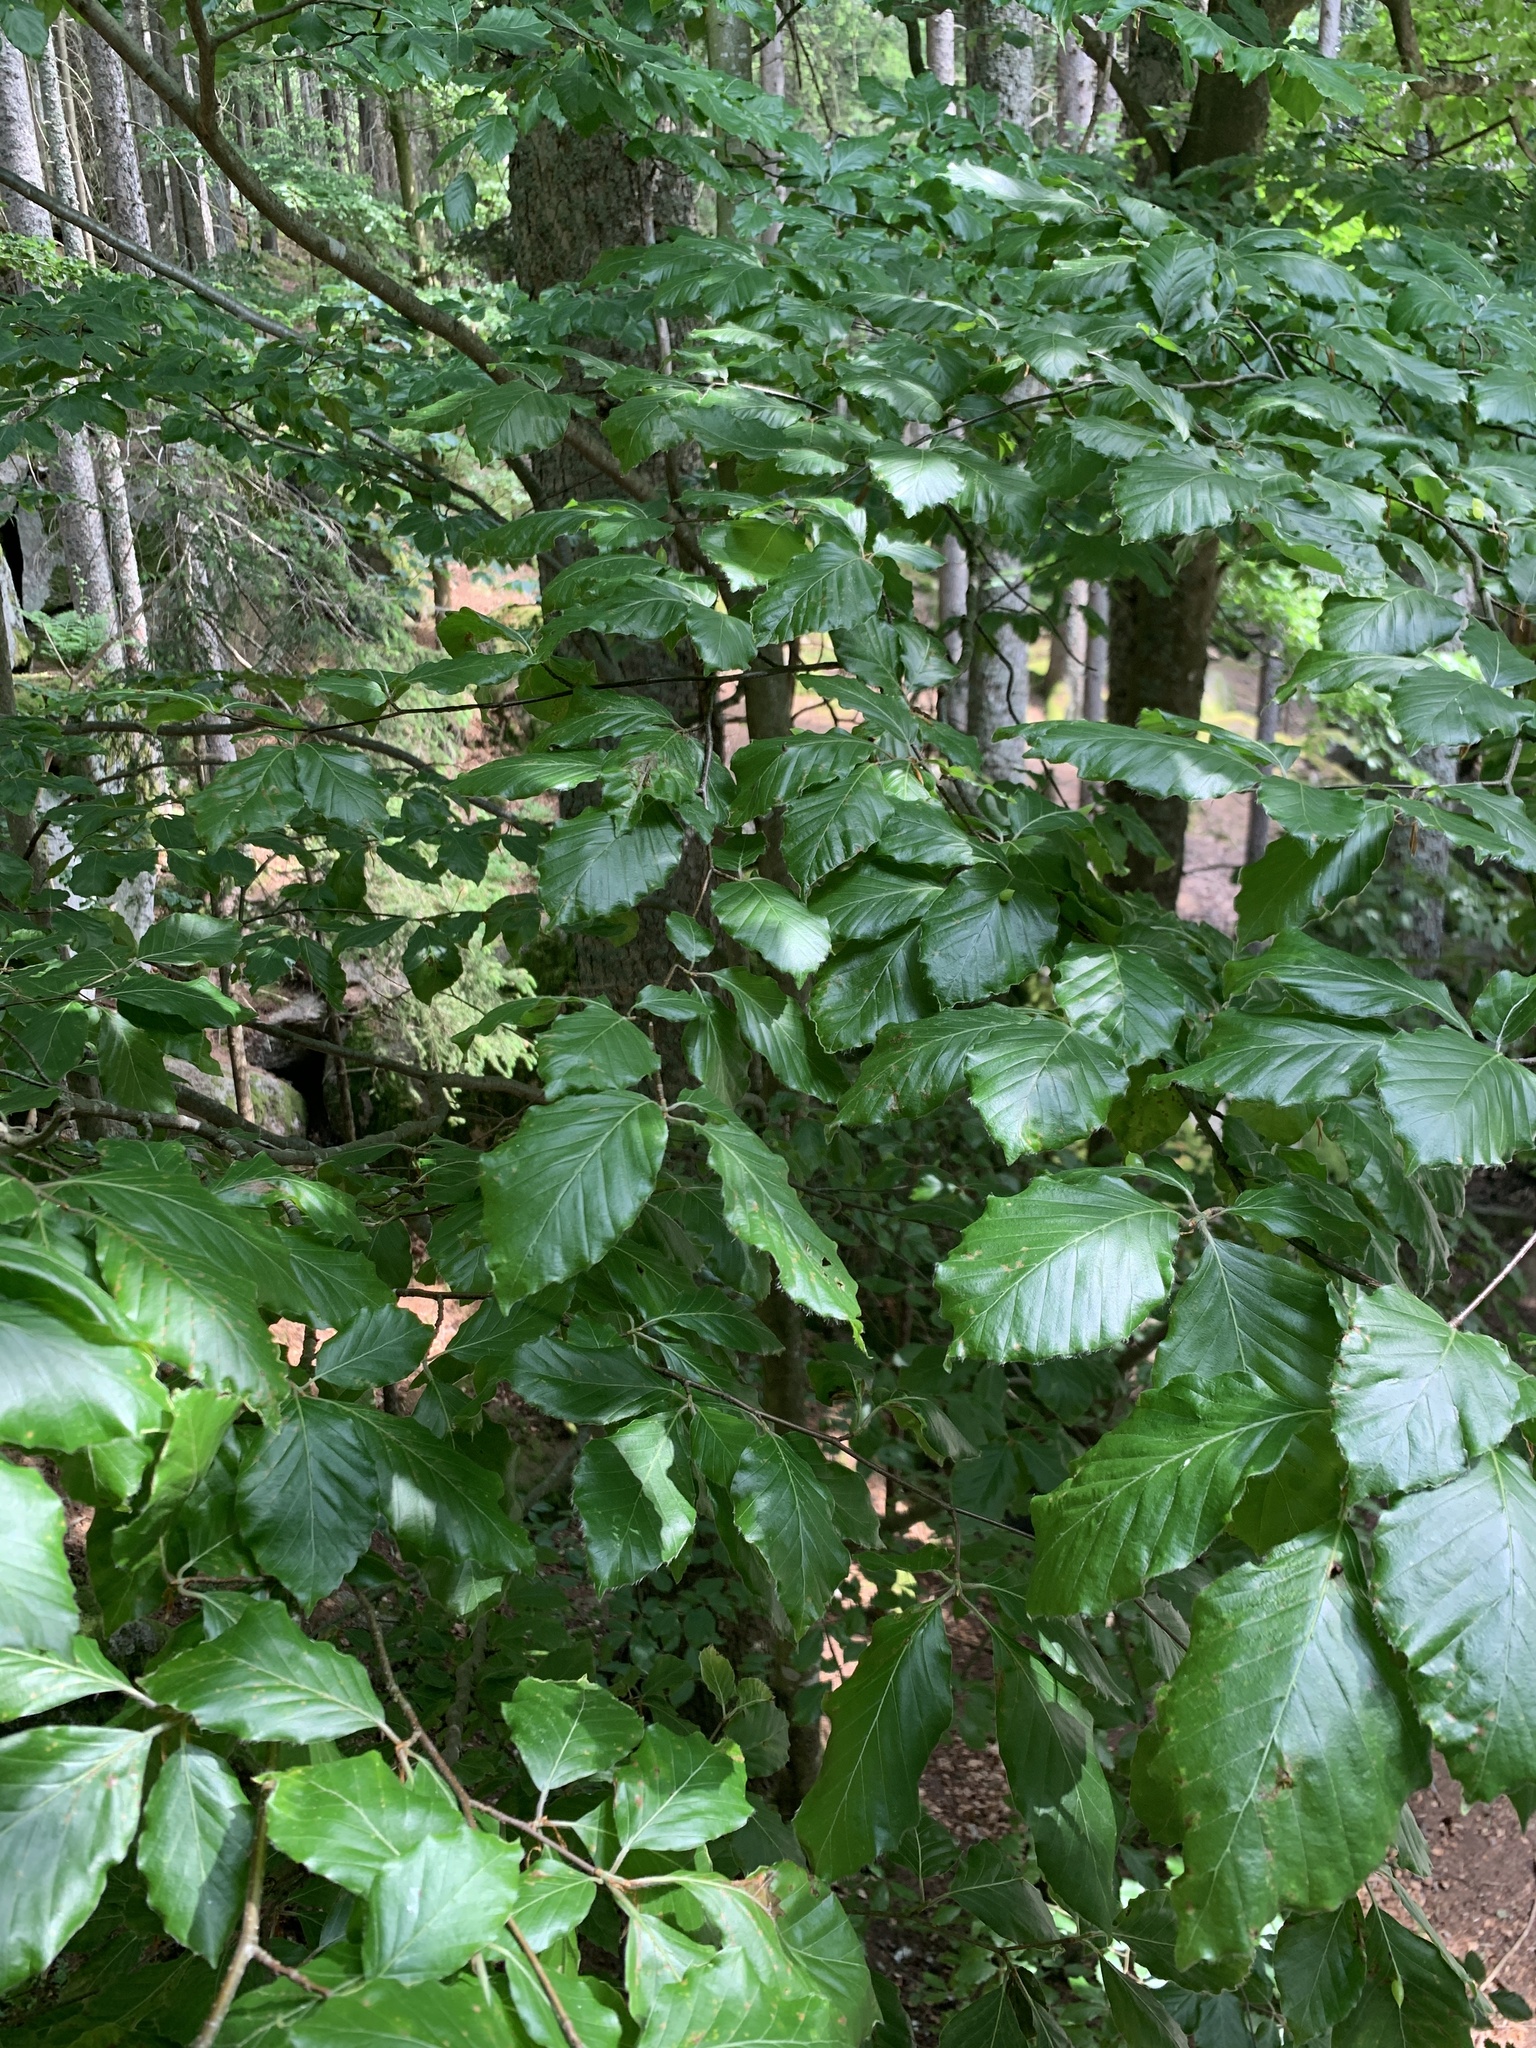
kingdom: Plantae
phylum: Tracheophyta
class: Magnoliopsida
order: Fagales
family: Fagaceae
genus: Fagus
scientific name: Fagus sylvatica
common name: Beech
